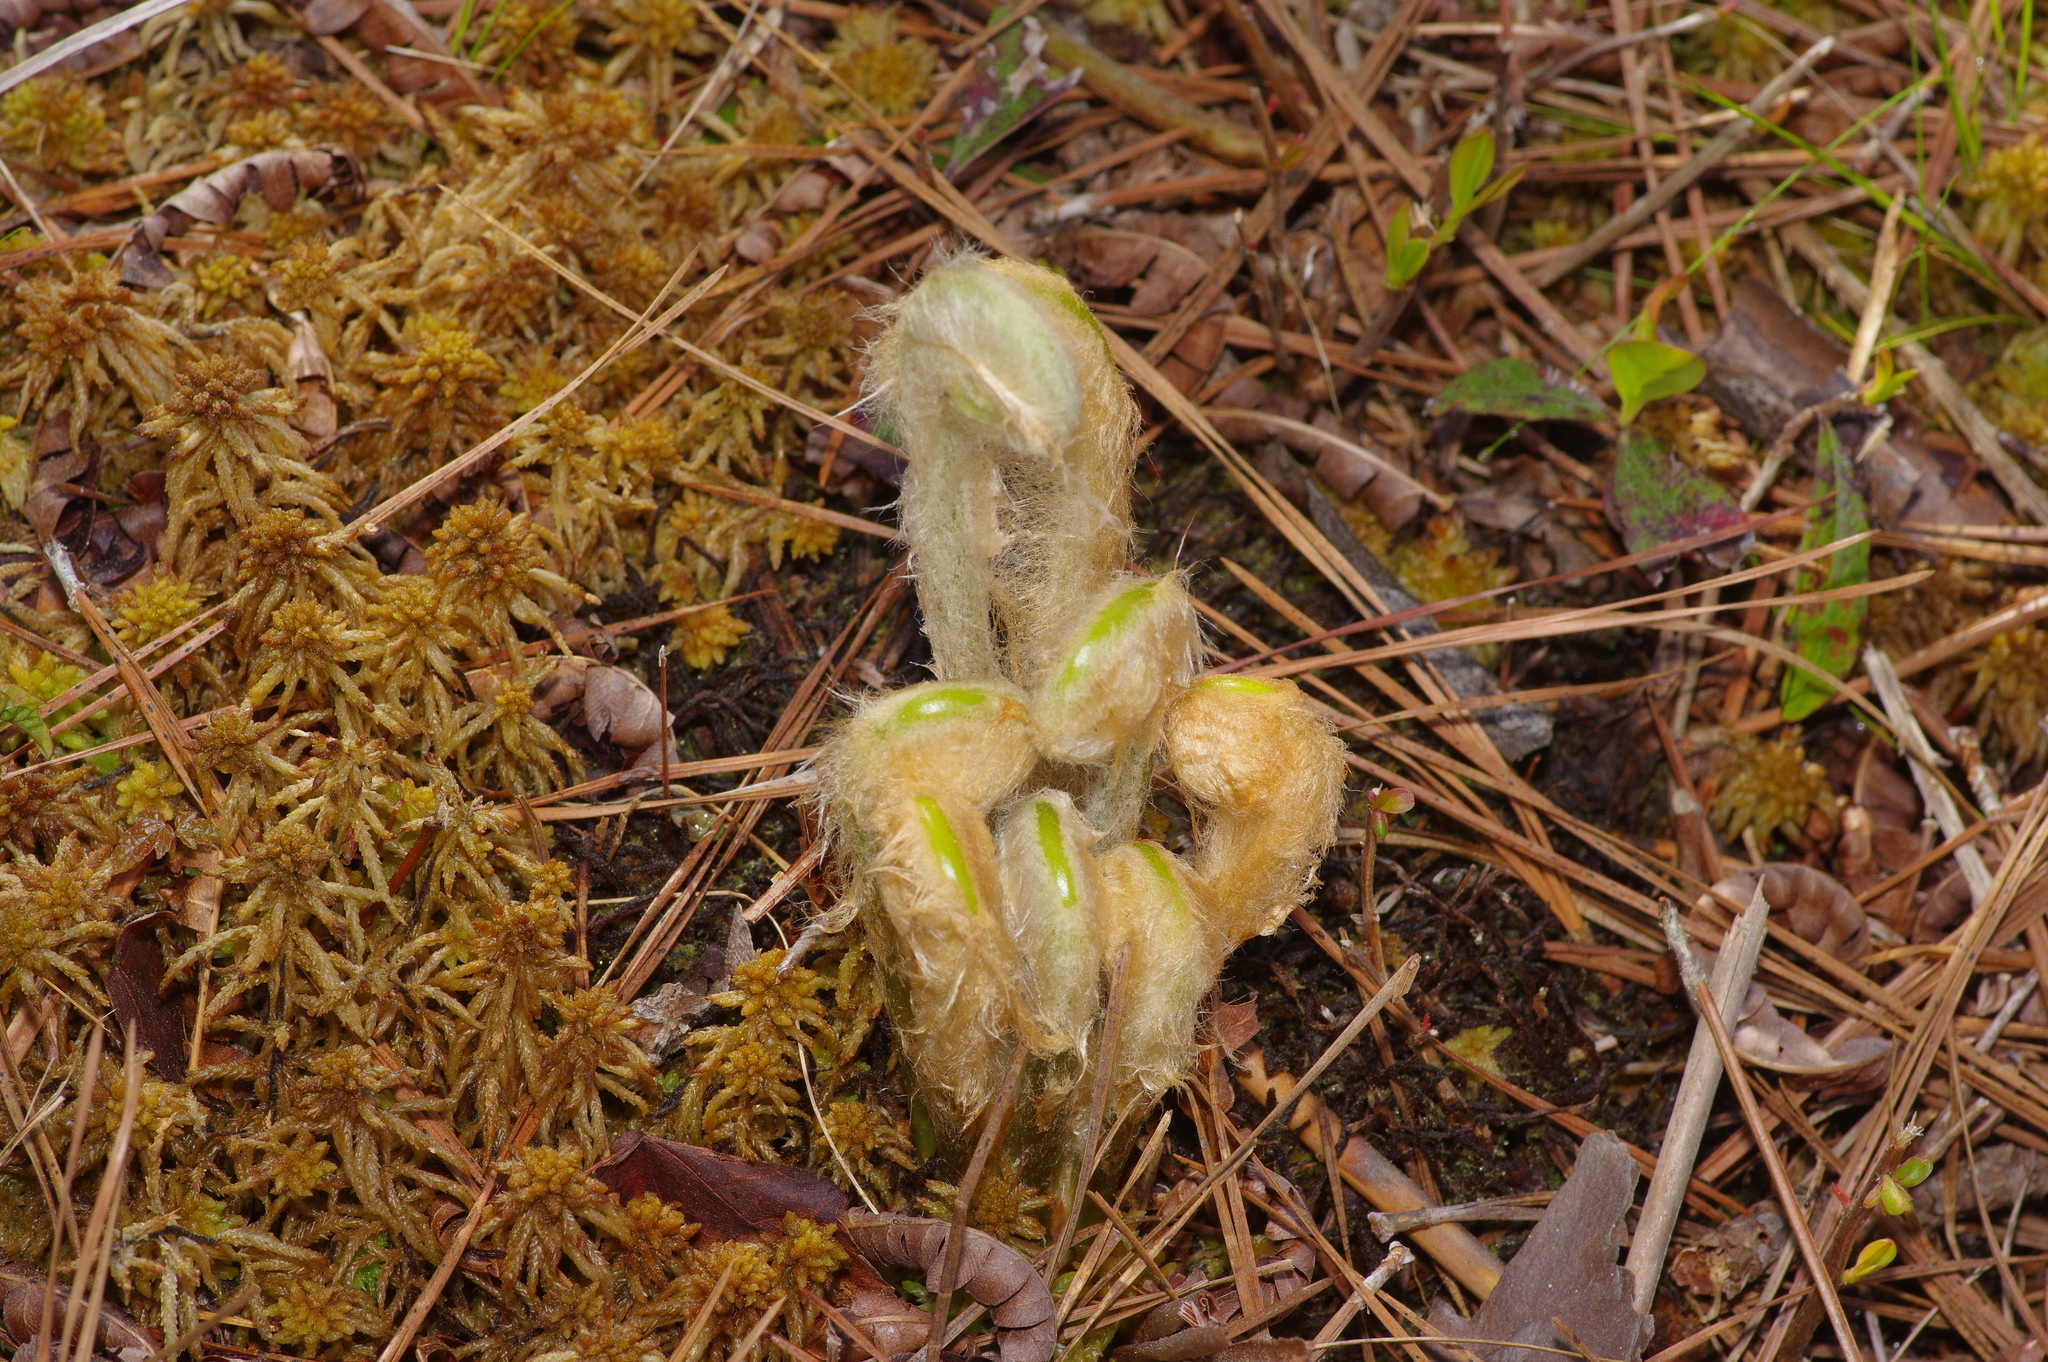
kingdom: Plantae
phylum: Tracheophyta
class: Polypodiopsida
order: Osmundales
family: Osmundaceae
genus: Osmundastrum
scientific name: Osmundastrum cinnamomeum
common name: Cinnamon fern
